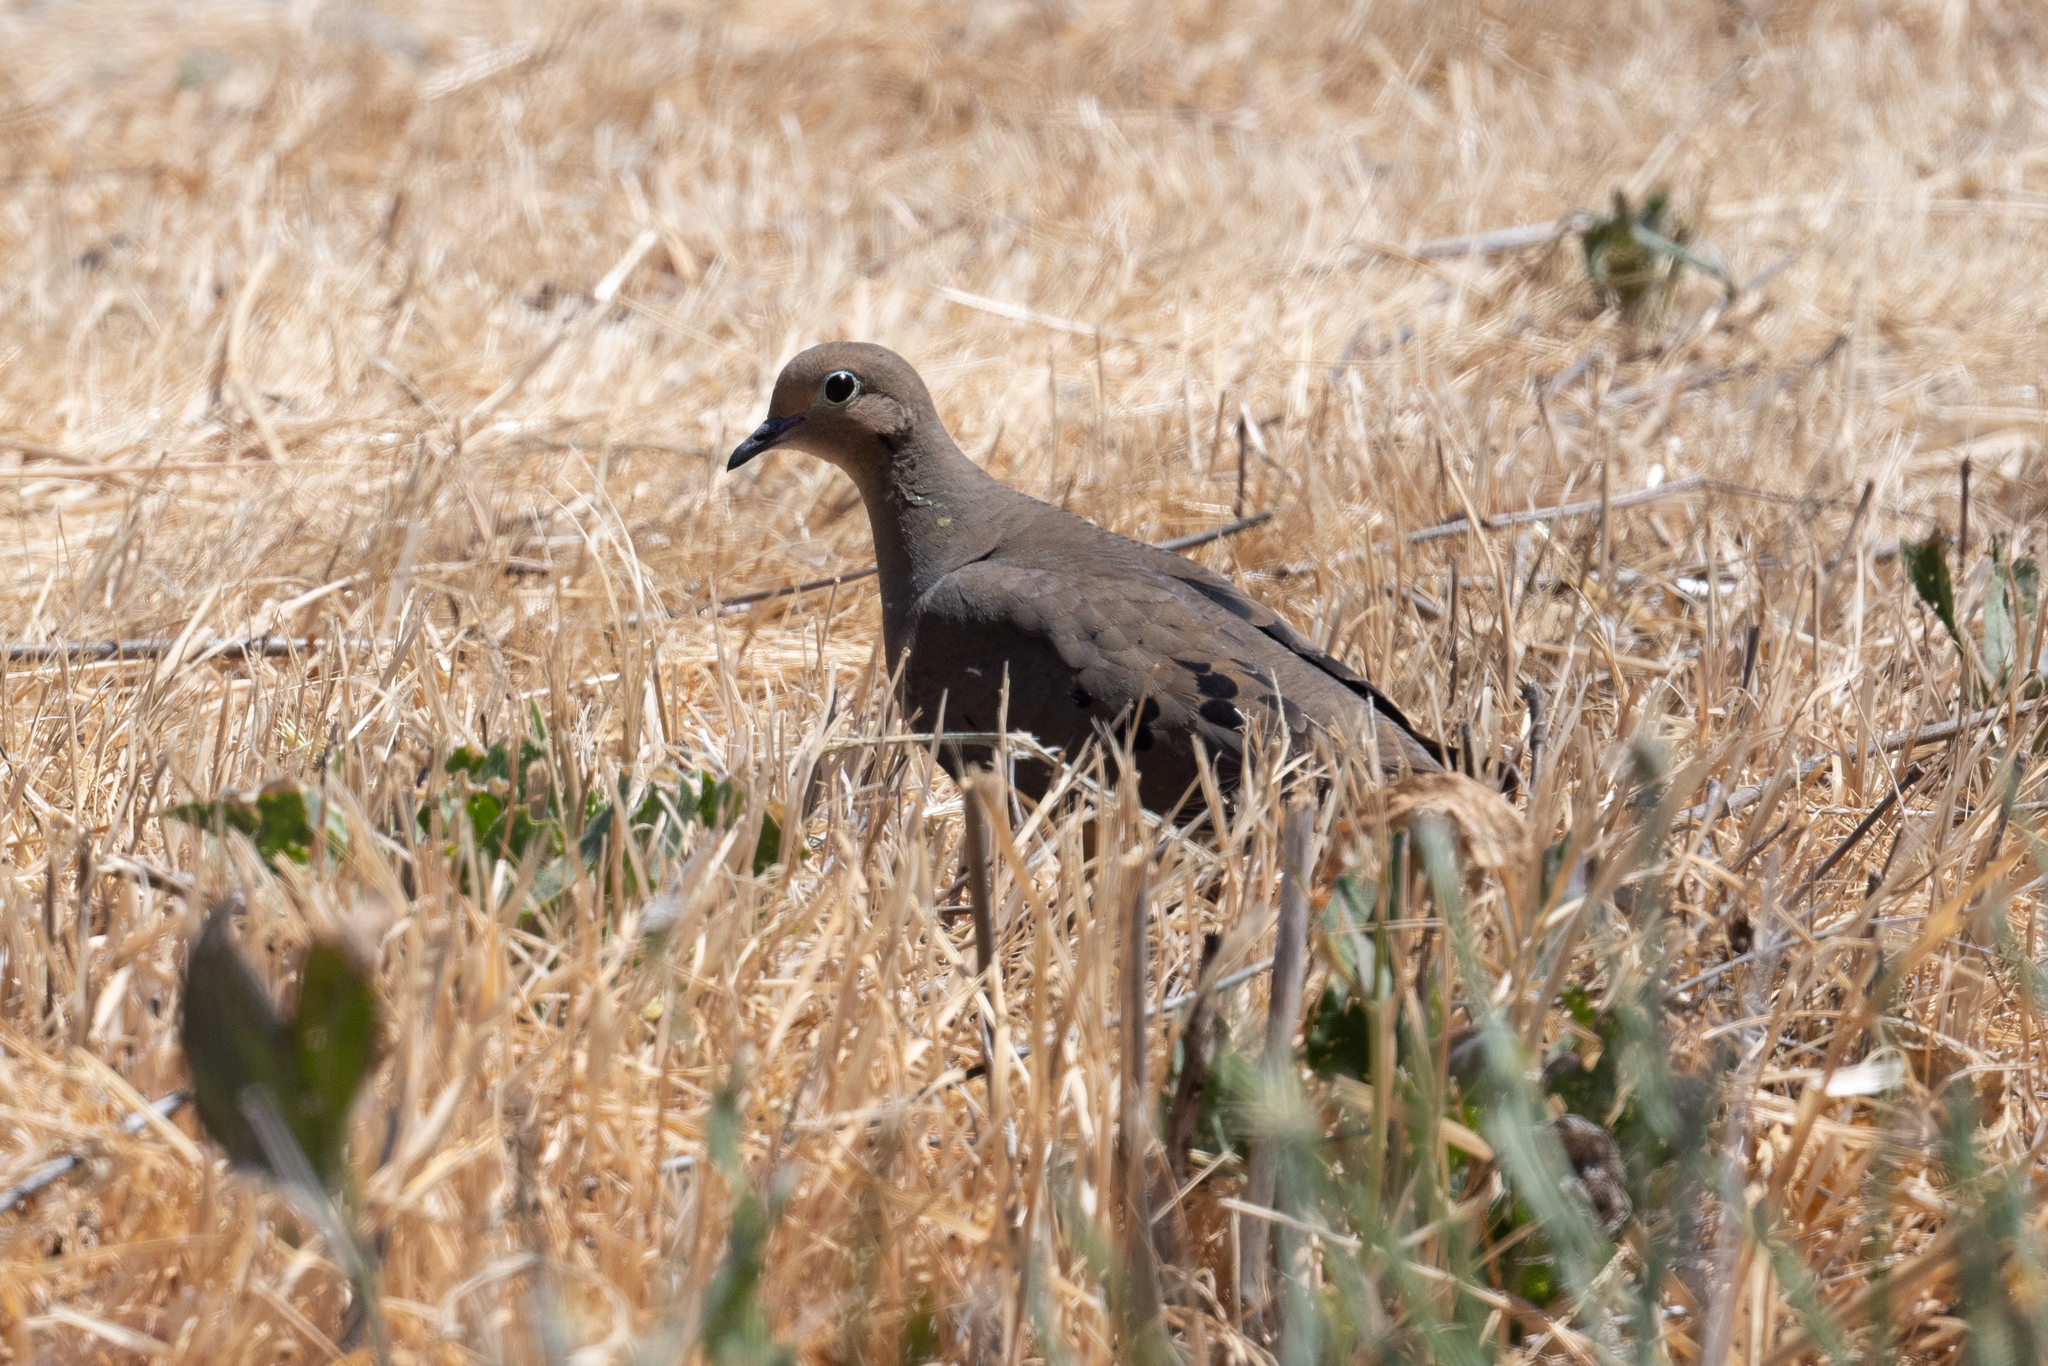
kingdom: Animalia
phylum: Chordata
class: Aves
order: Columbiformes
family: Columbidae
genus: Zenaida
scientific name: Zenaida macroura
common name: Mourning dove
